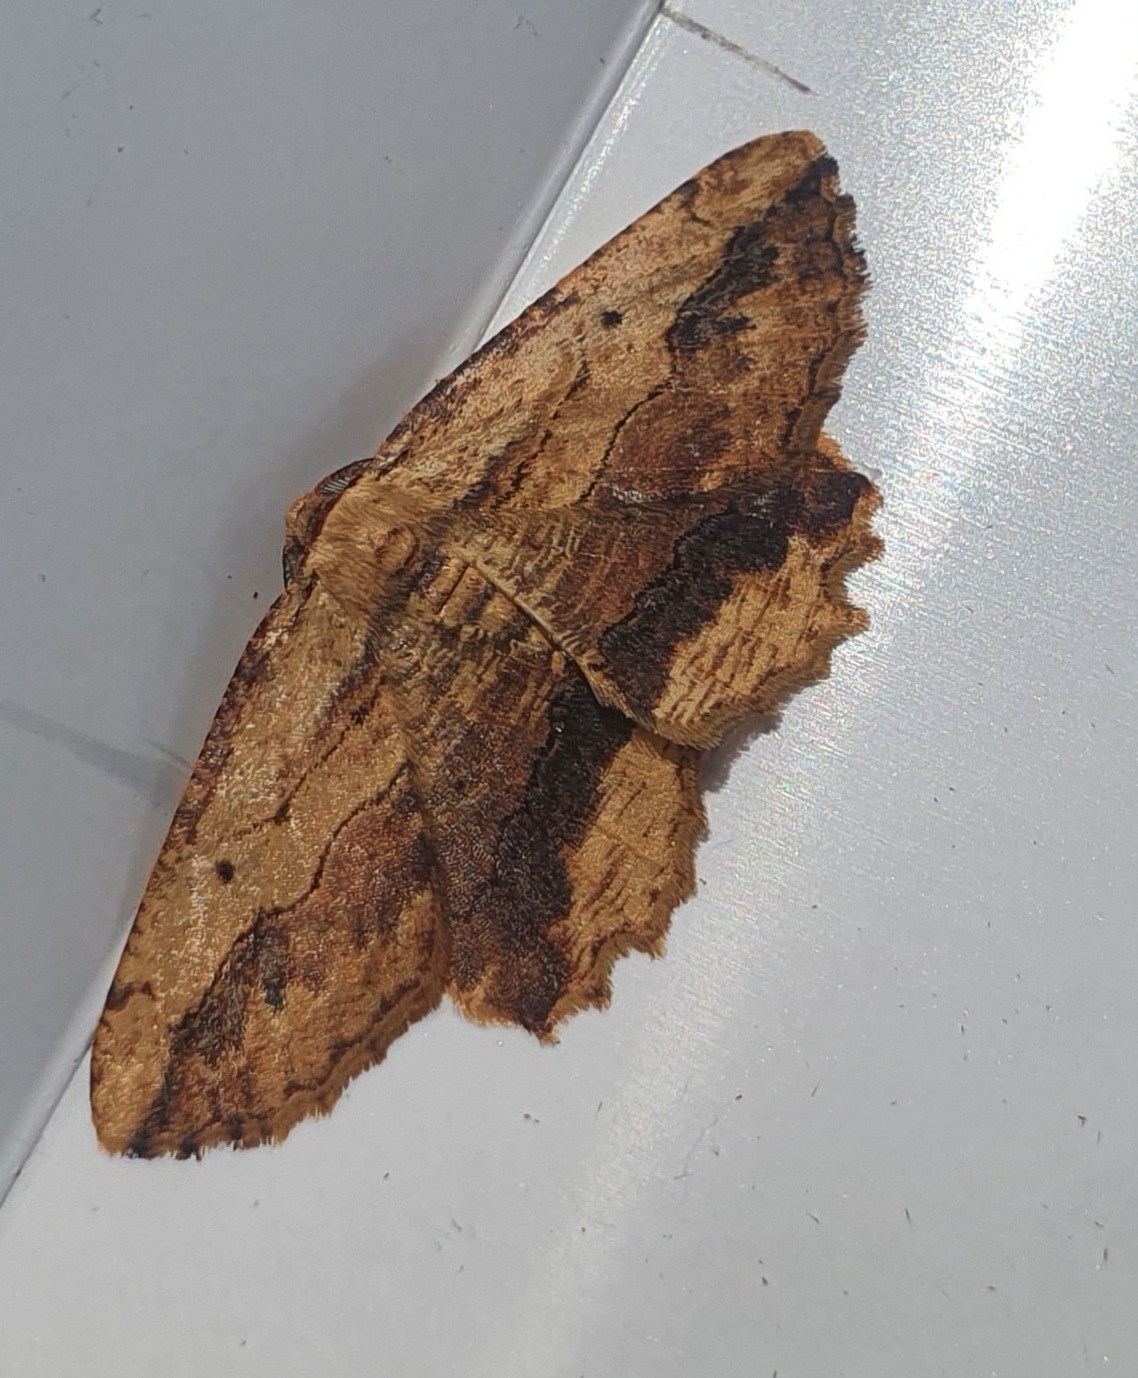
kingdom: Animalia
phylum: Arthropoda
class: Insecta
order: Lepidoptera
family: Geometridae
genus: Menophra
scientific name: Menophra abruptaria
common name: Waved umber
